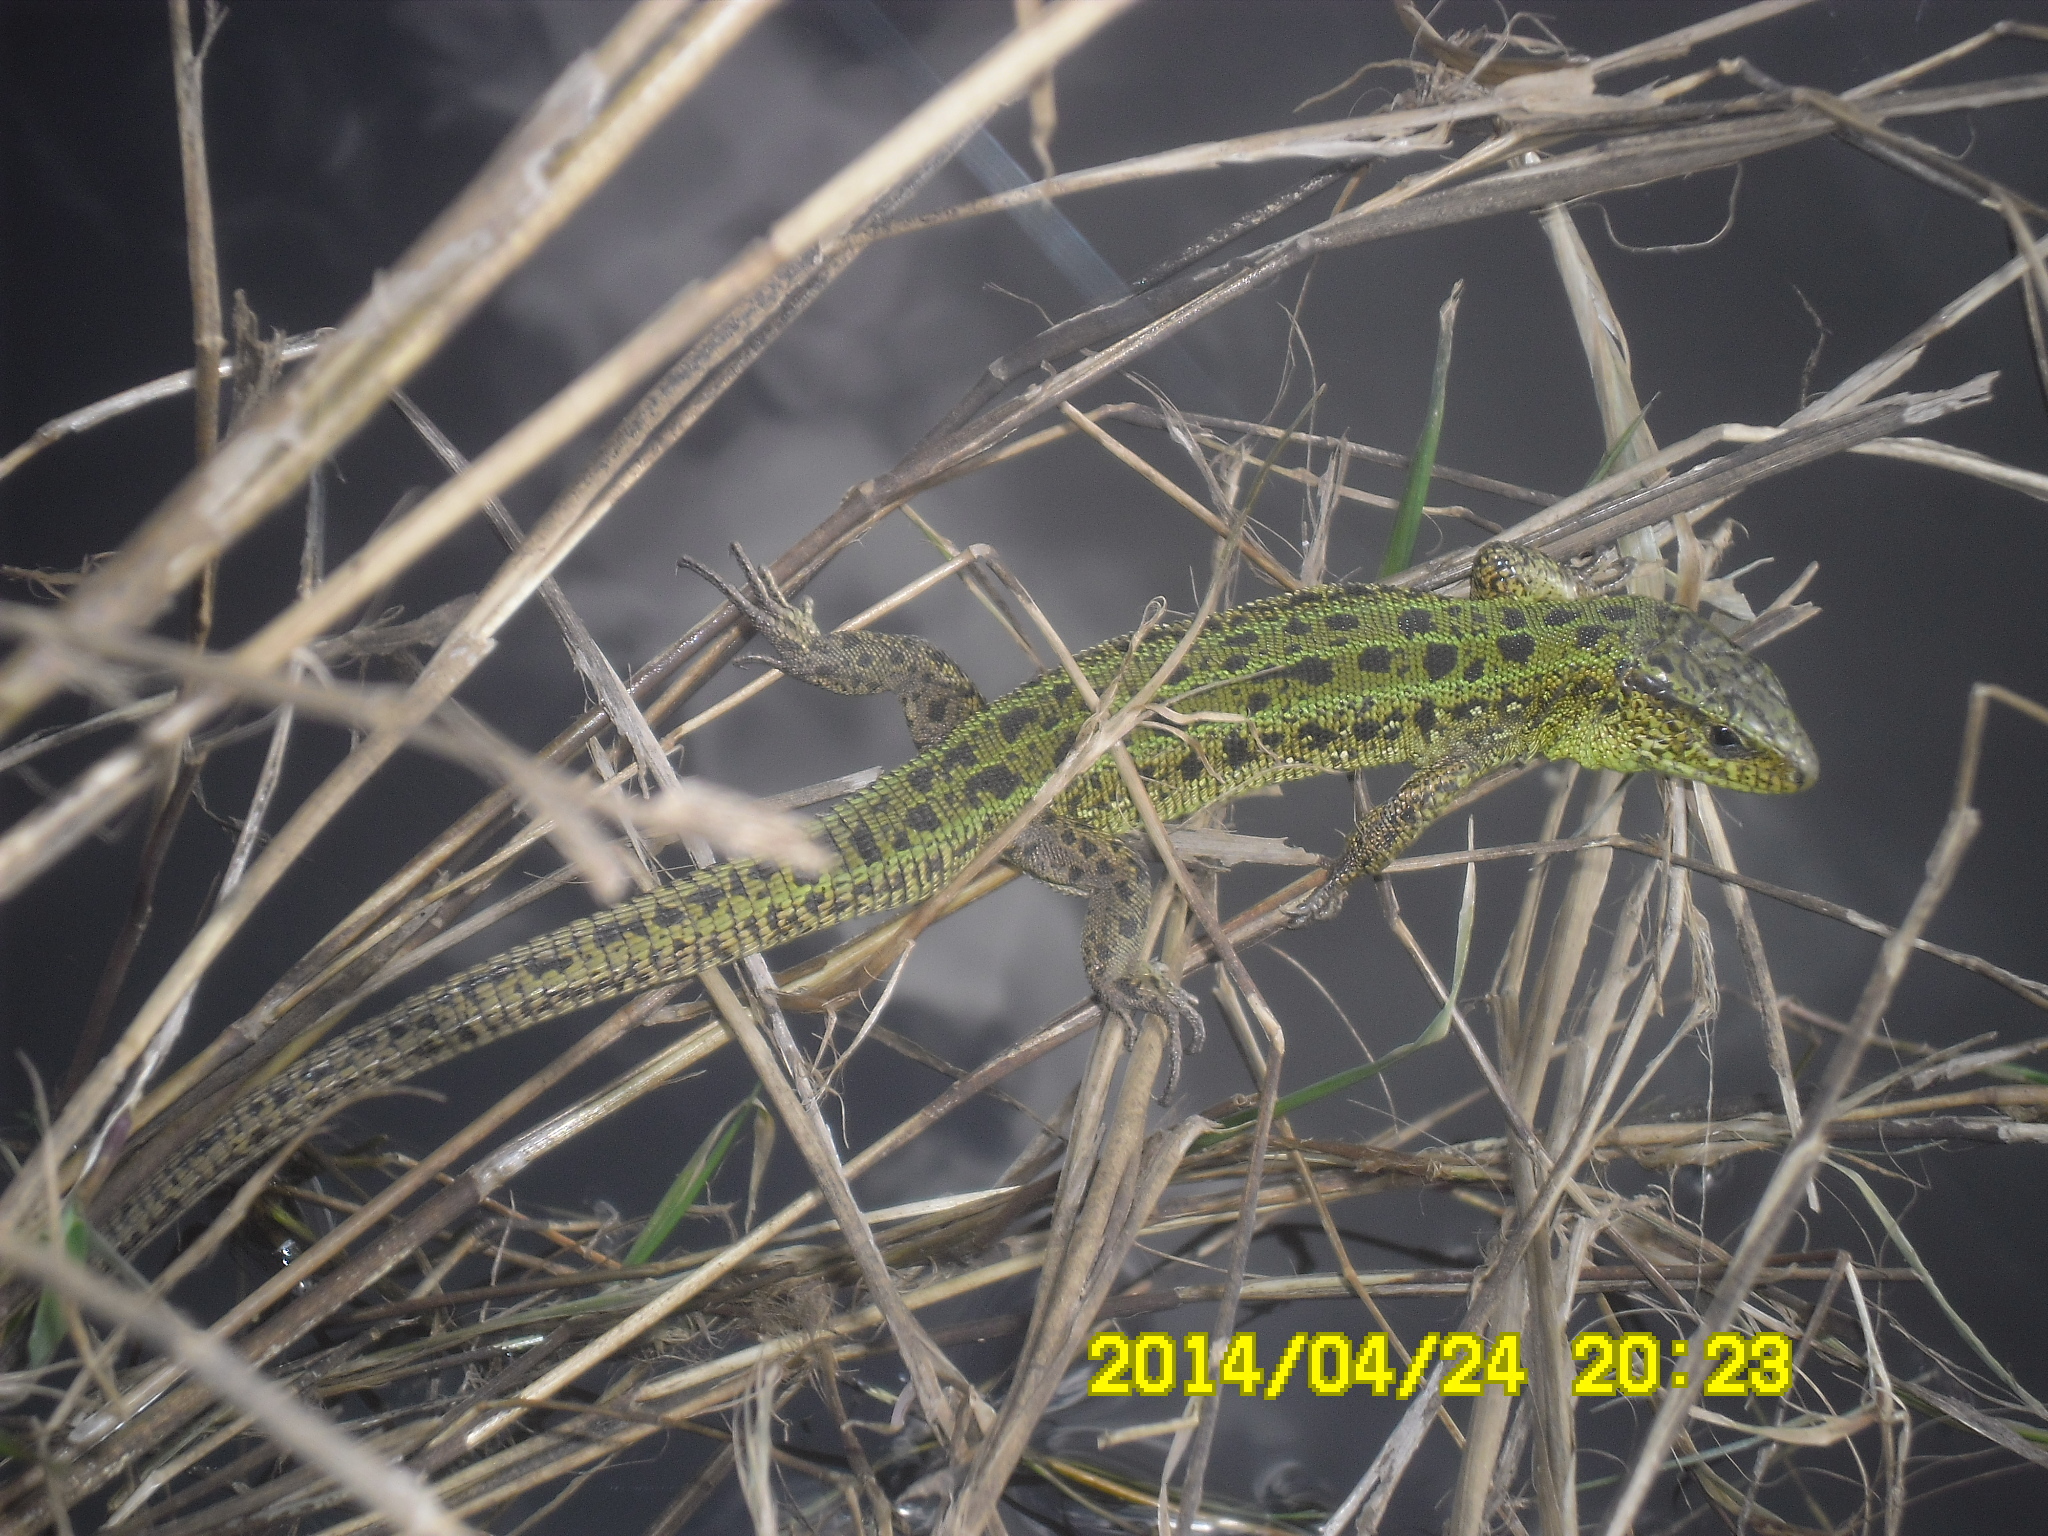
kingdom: Animalia
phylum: Chordata
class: Squamata
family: Lacertidae
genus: Lacerta
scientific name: Lacerta agilis
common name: Sand lizard
